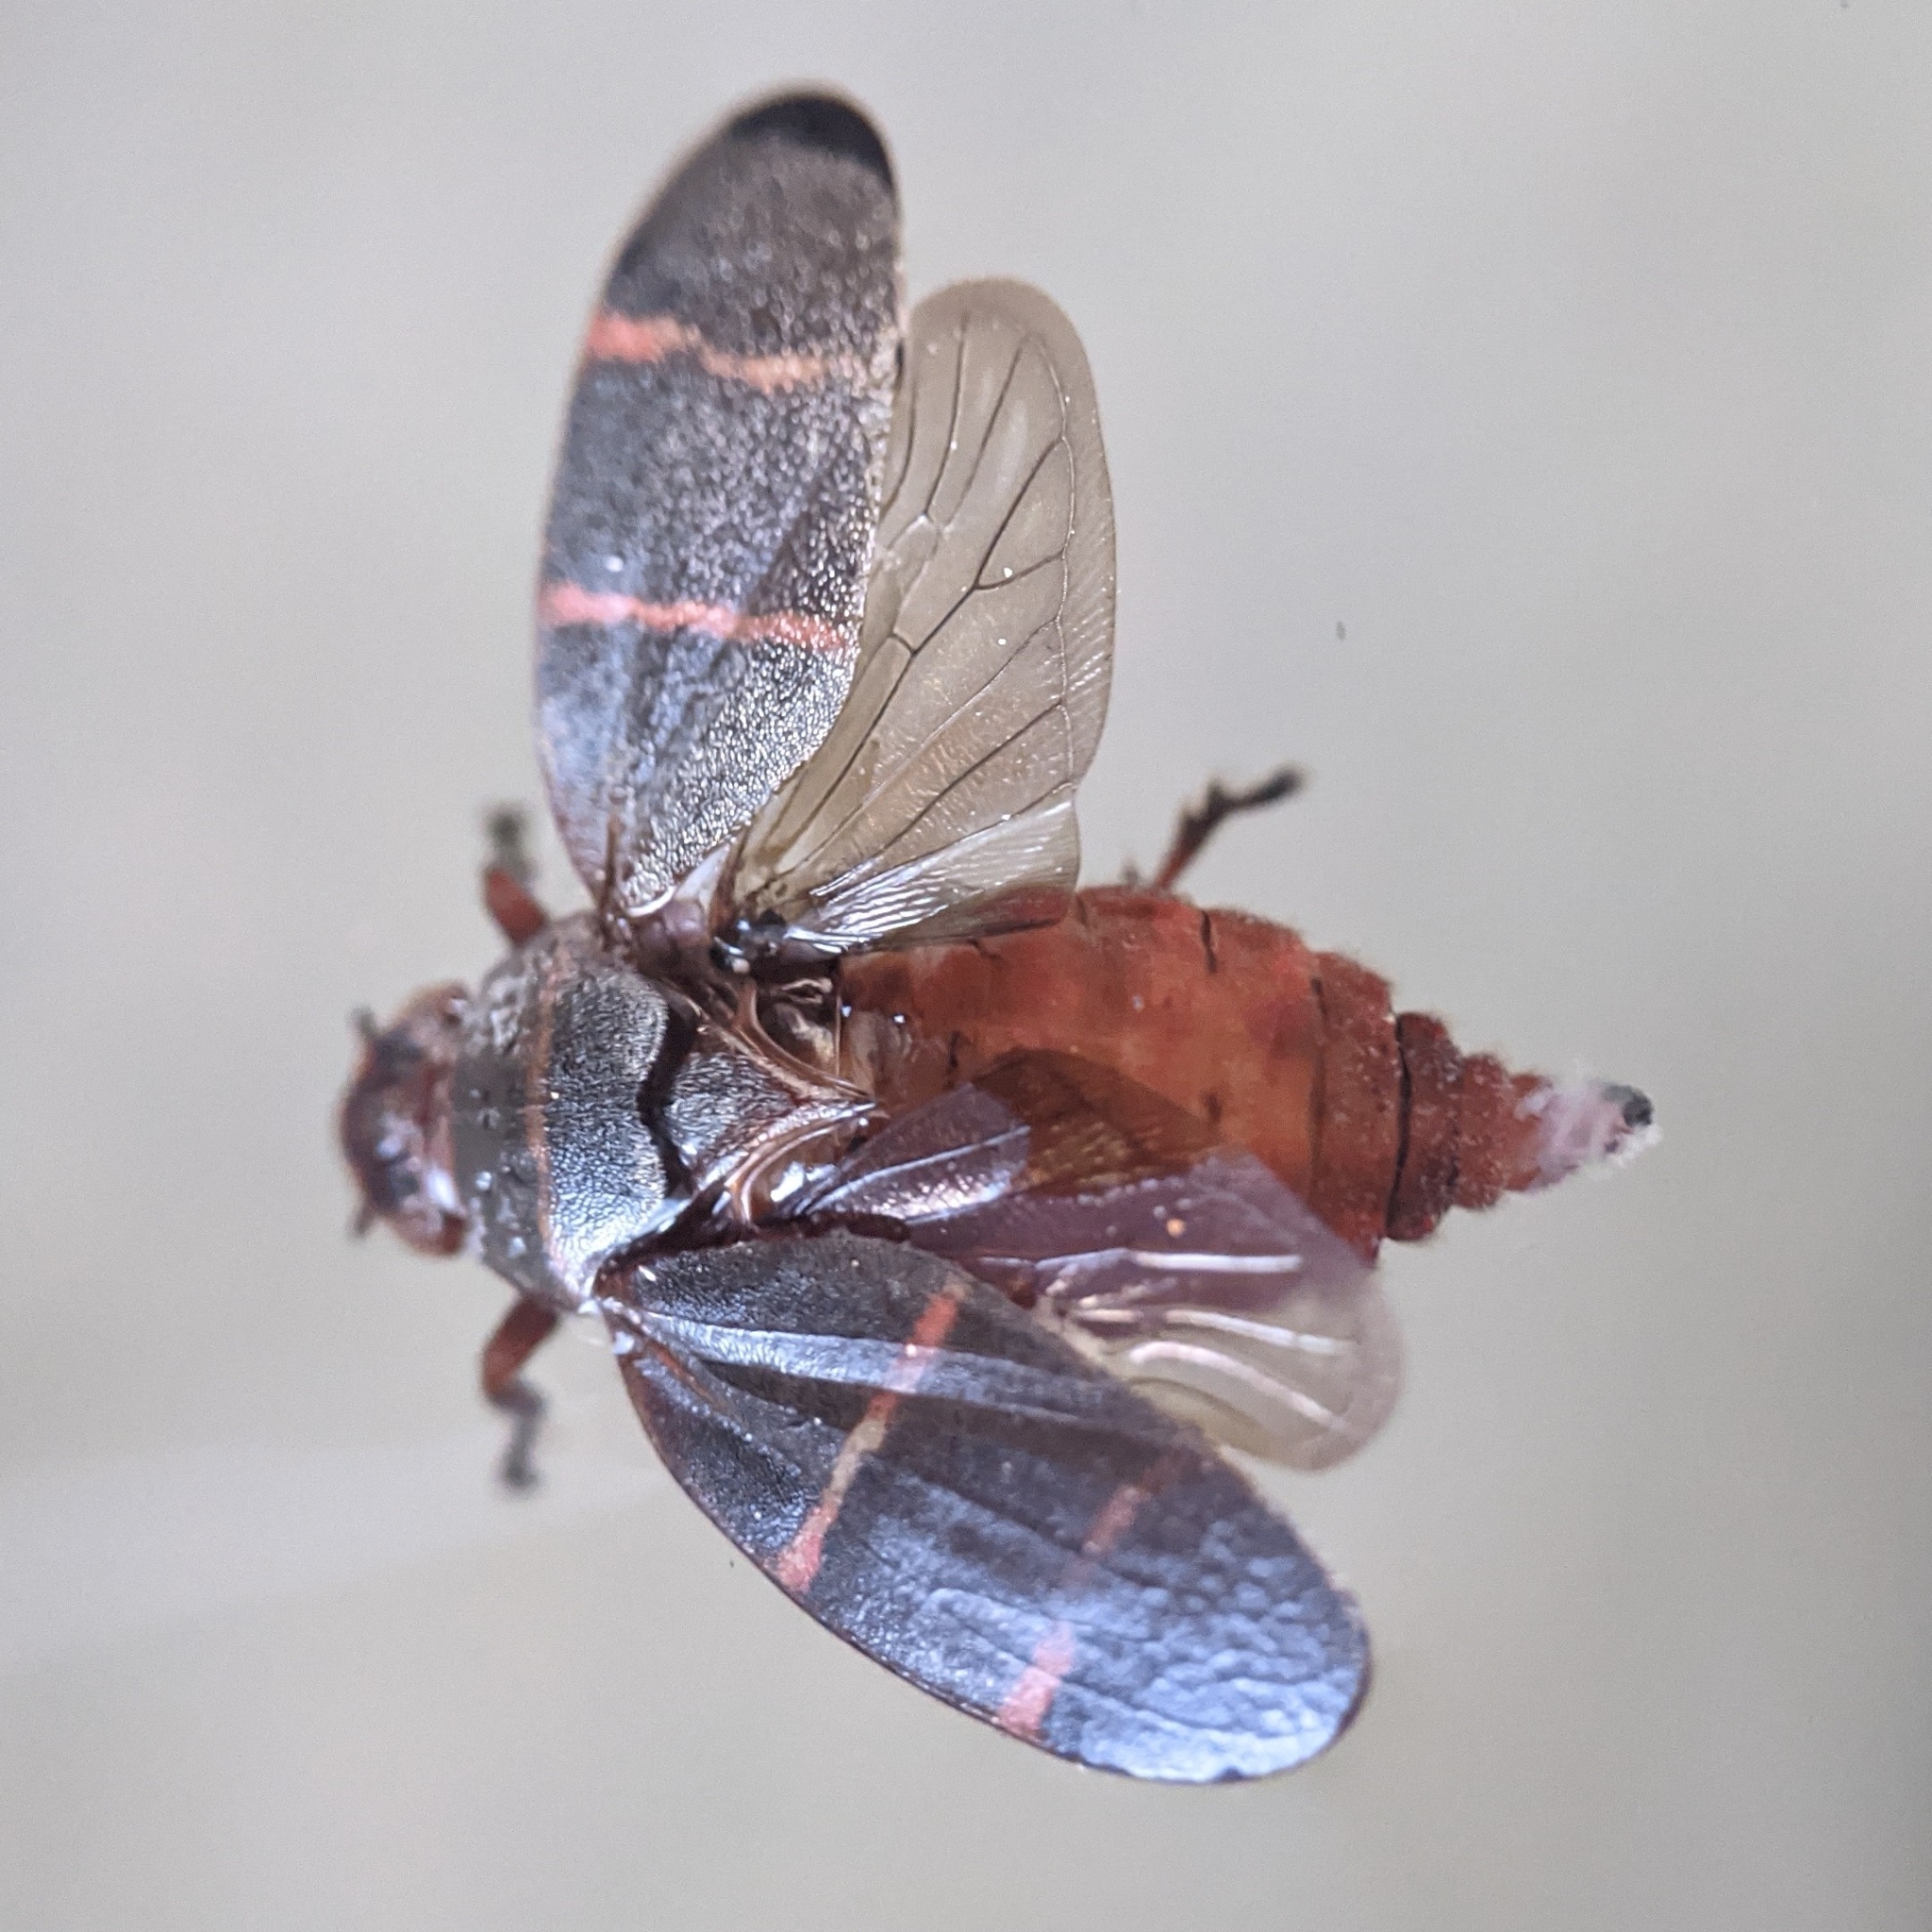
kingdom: Animalia
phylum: Arthropoda
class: Insecta
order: Hemiptera
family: Cercopidae
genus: Prosapia
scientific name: Prosapia bicincta
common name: Twolined spittlebug
